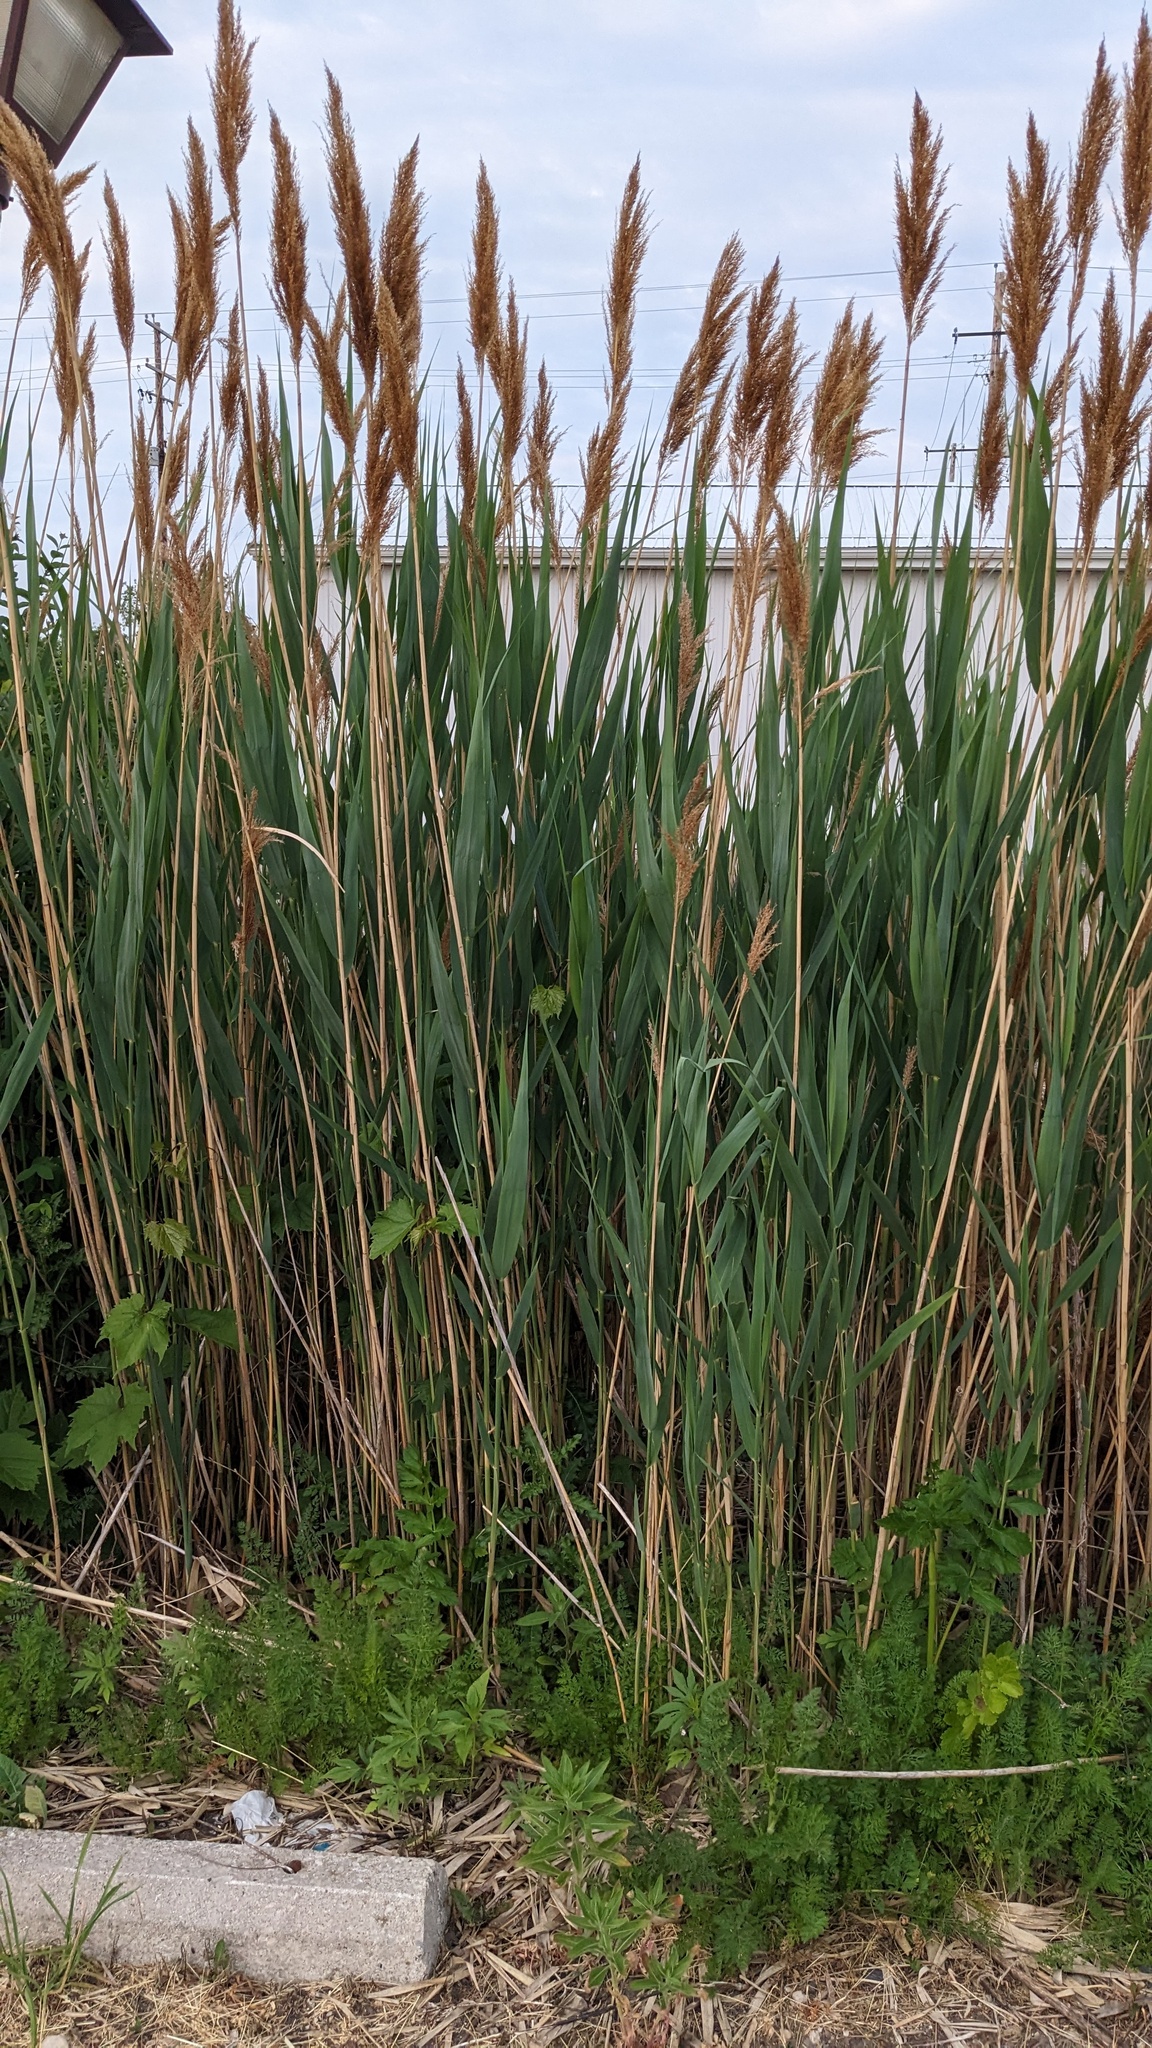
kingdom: Plantae
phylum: Tracheophyta
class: Liliopsida
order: Poales
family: Poaceae
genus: Phragmites
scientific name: Phragmites australis
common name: Common reed
